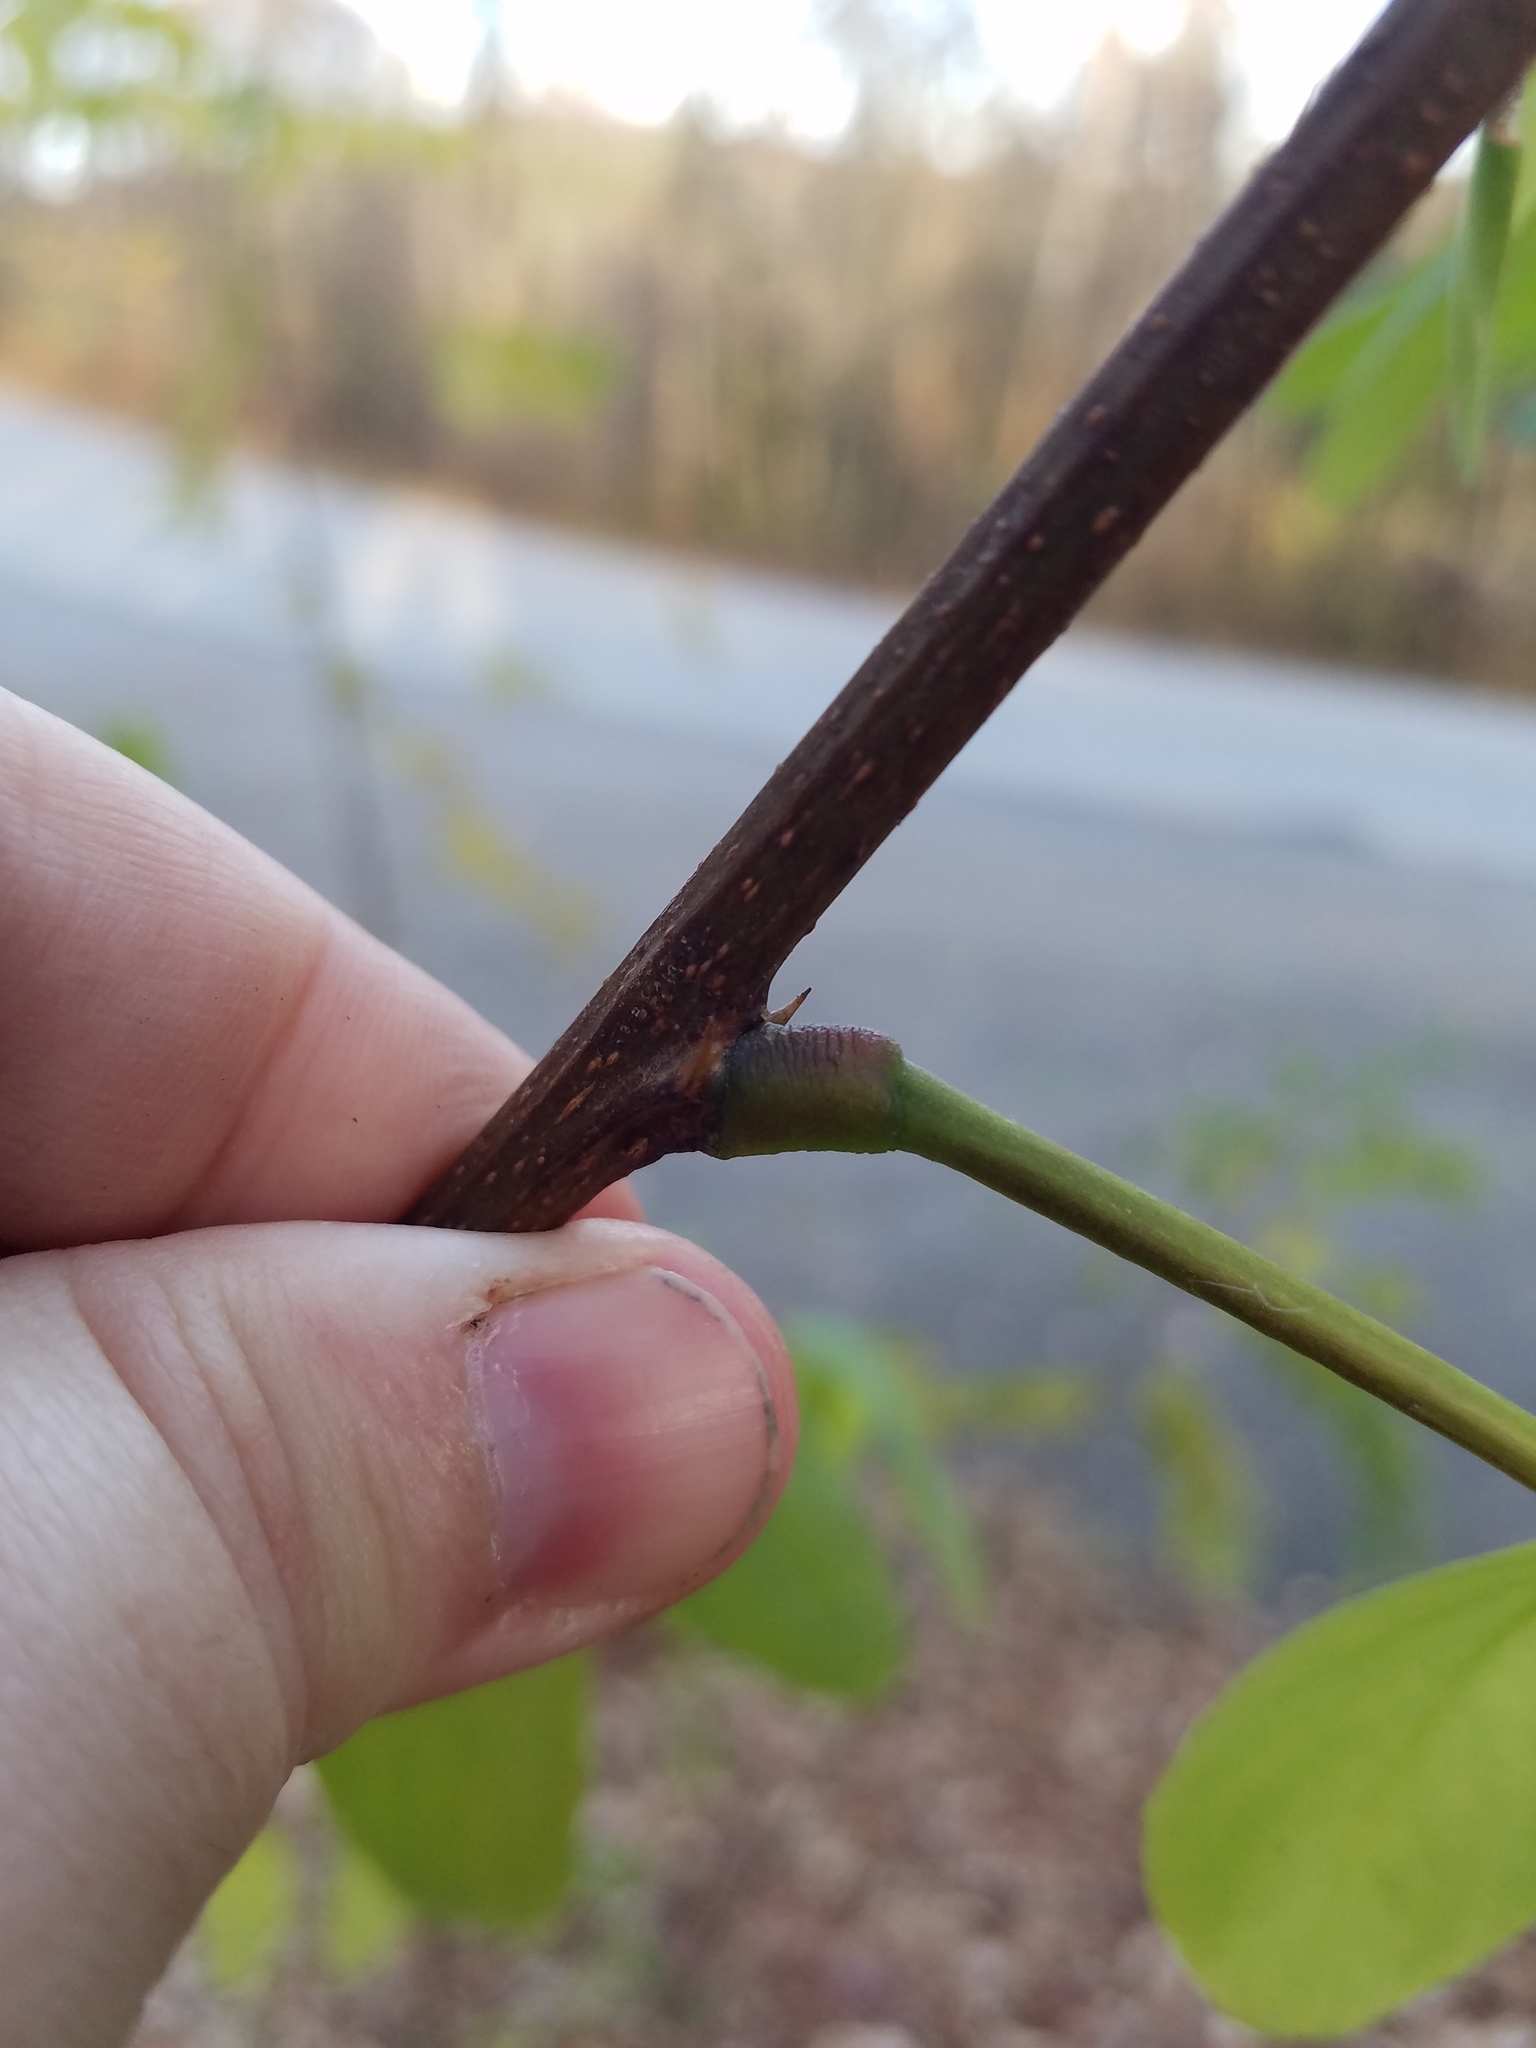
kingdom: Plantae
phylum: Tracheophyta
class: Magnoliopsida
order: Fabales
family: Fabaceae
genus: Robinia
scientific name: Robinia pseudoacacia
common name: Black locust
